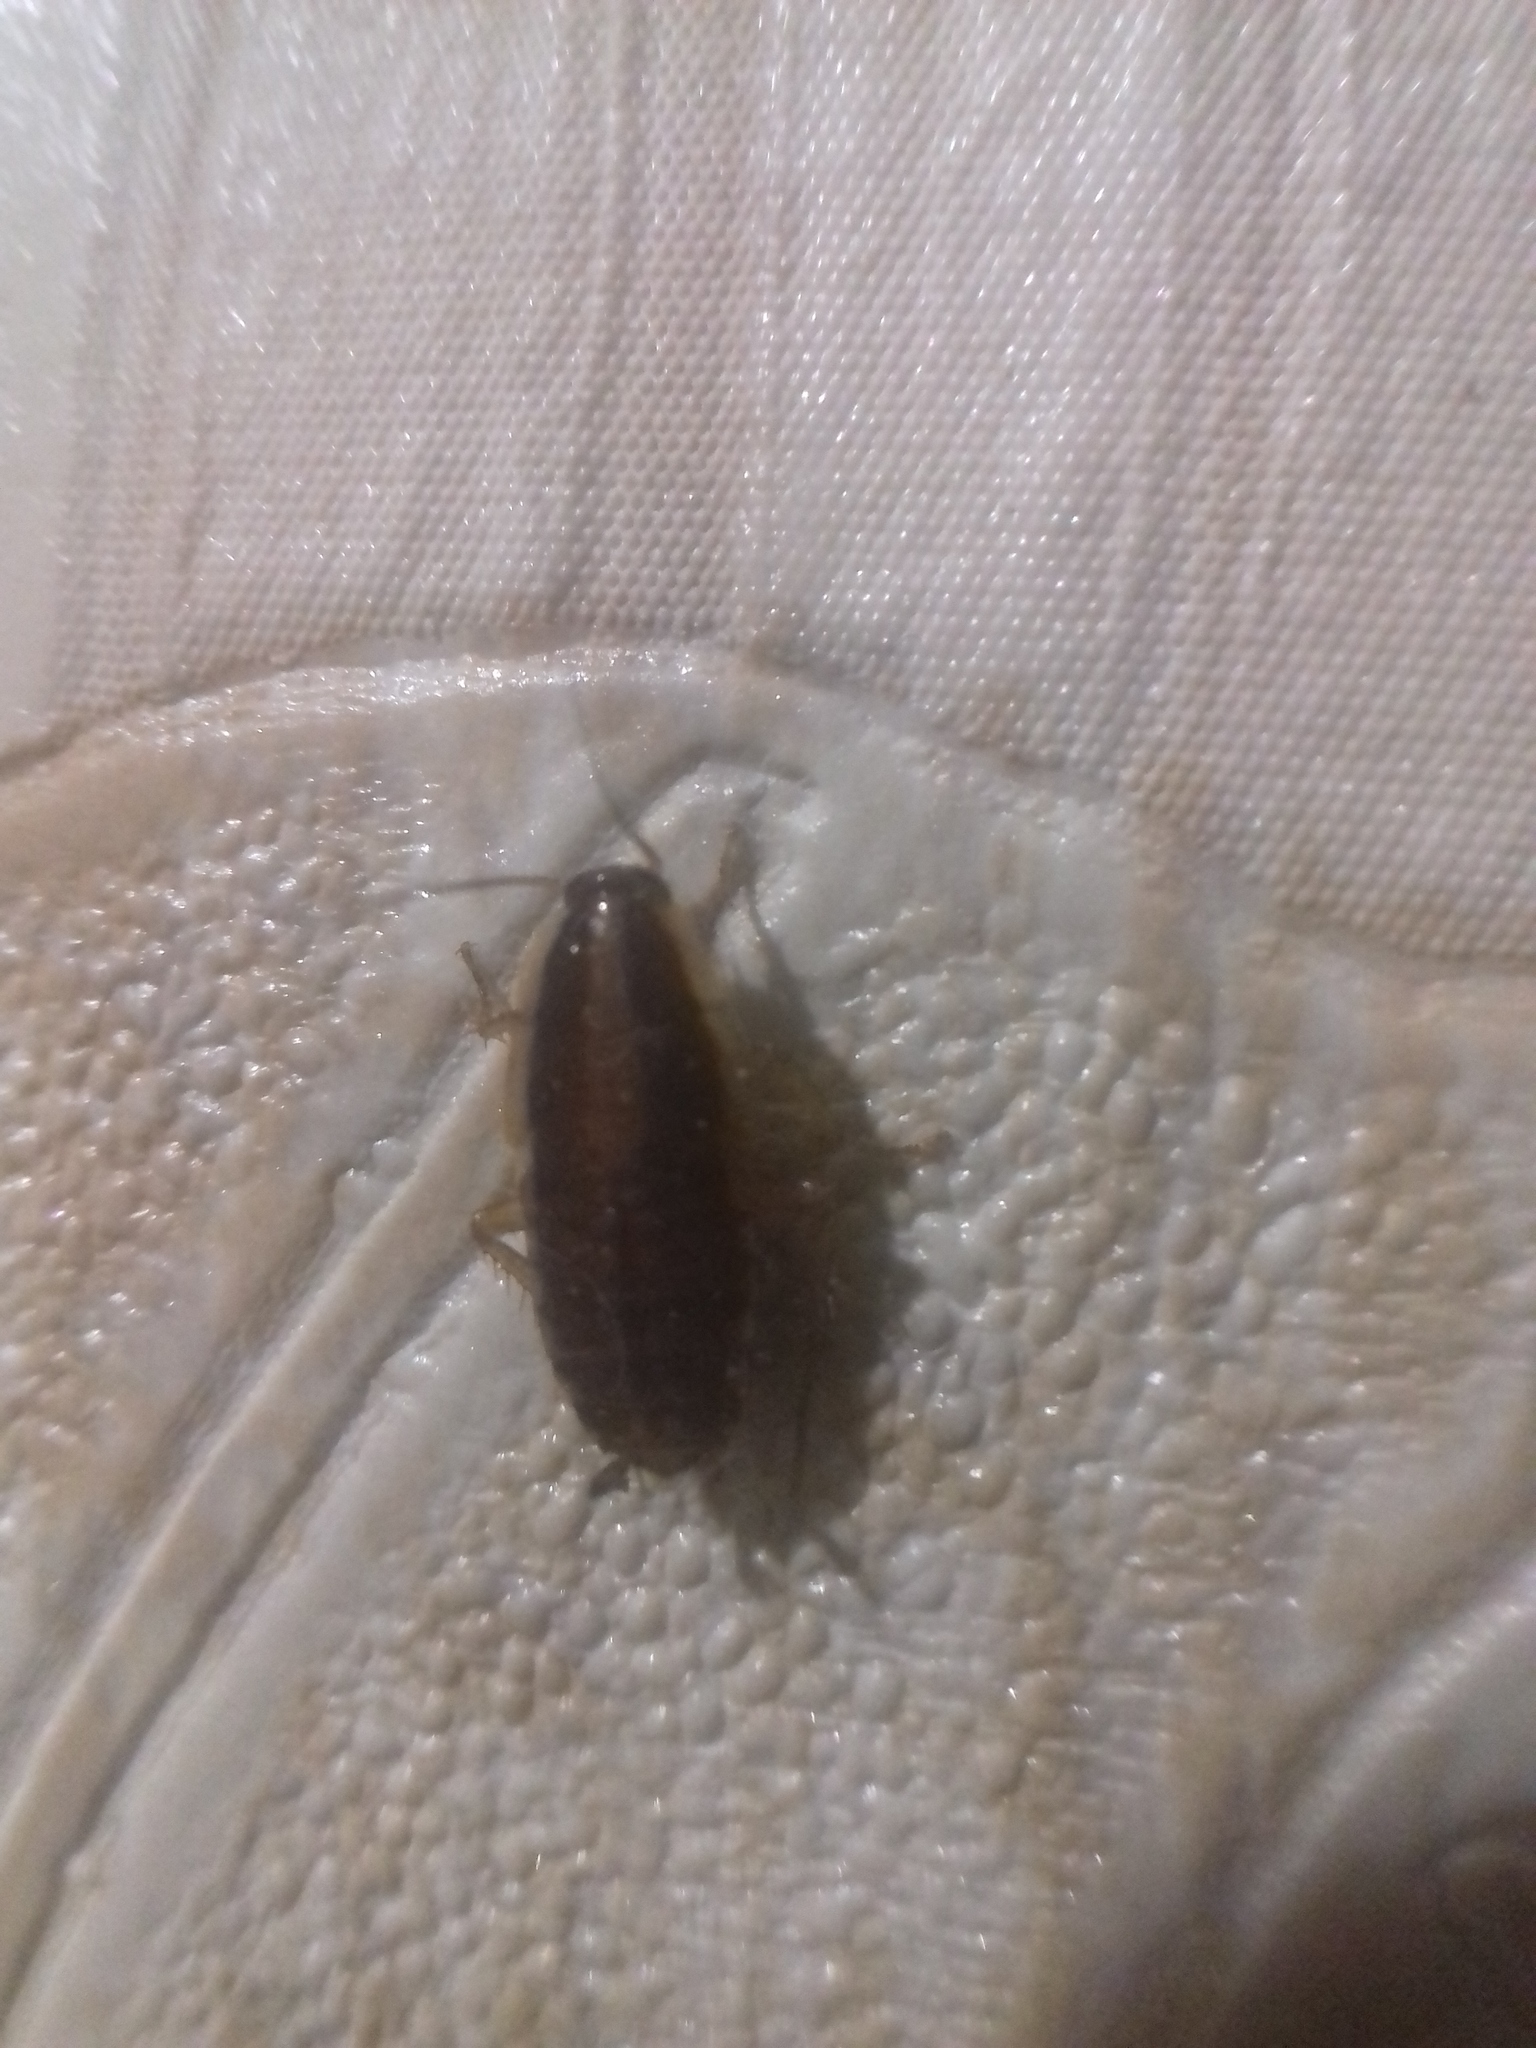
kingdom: Animalia
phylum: Arthropoda
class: Insecta
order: Blattodea
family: Ectobiidae
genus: Blattella
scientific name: Blattella germanica
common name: German cockroach
